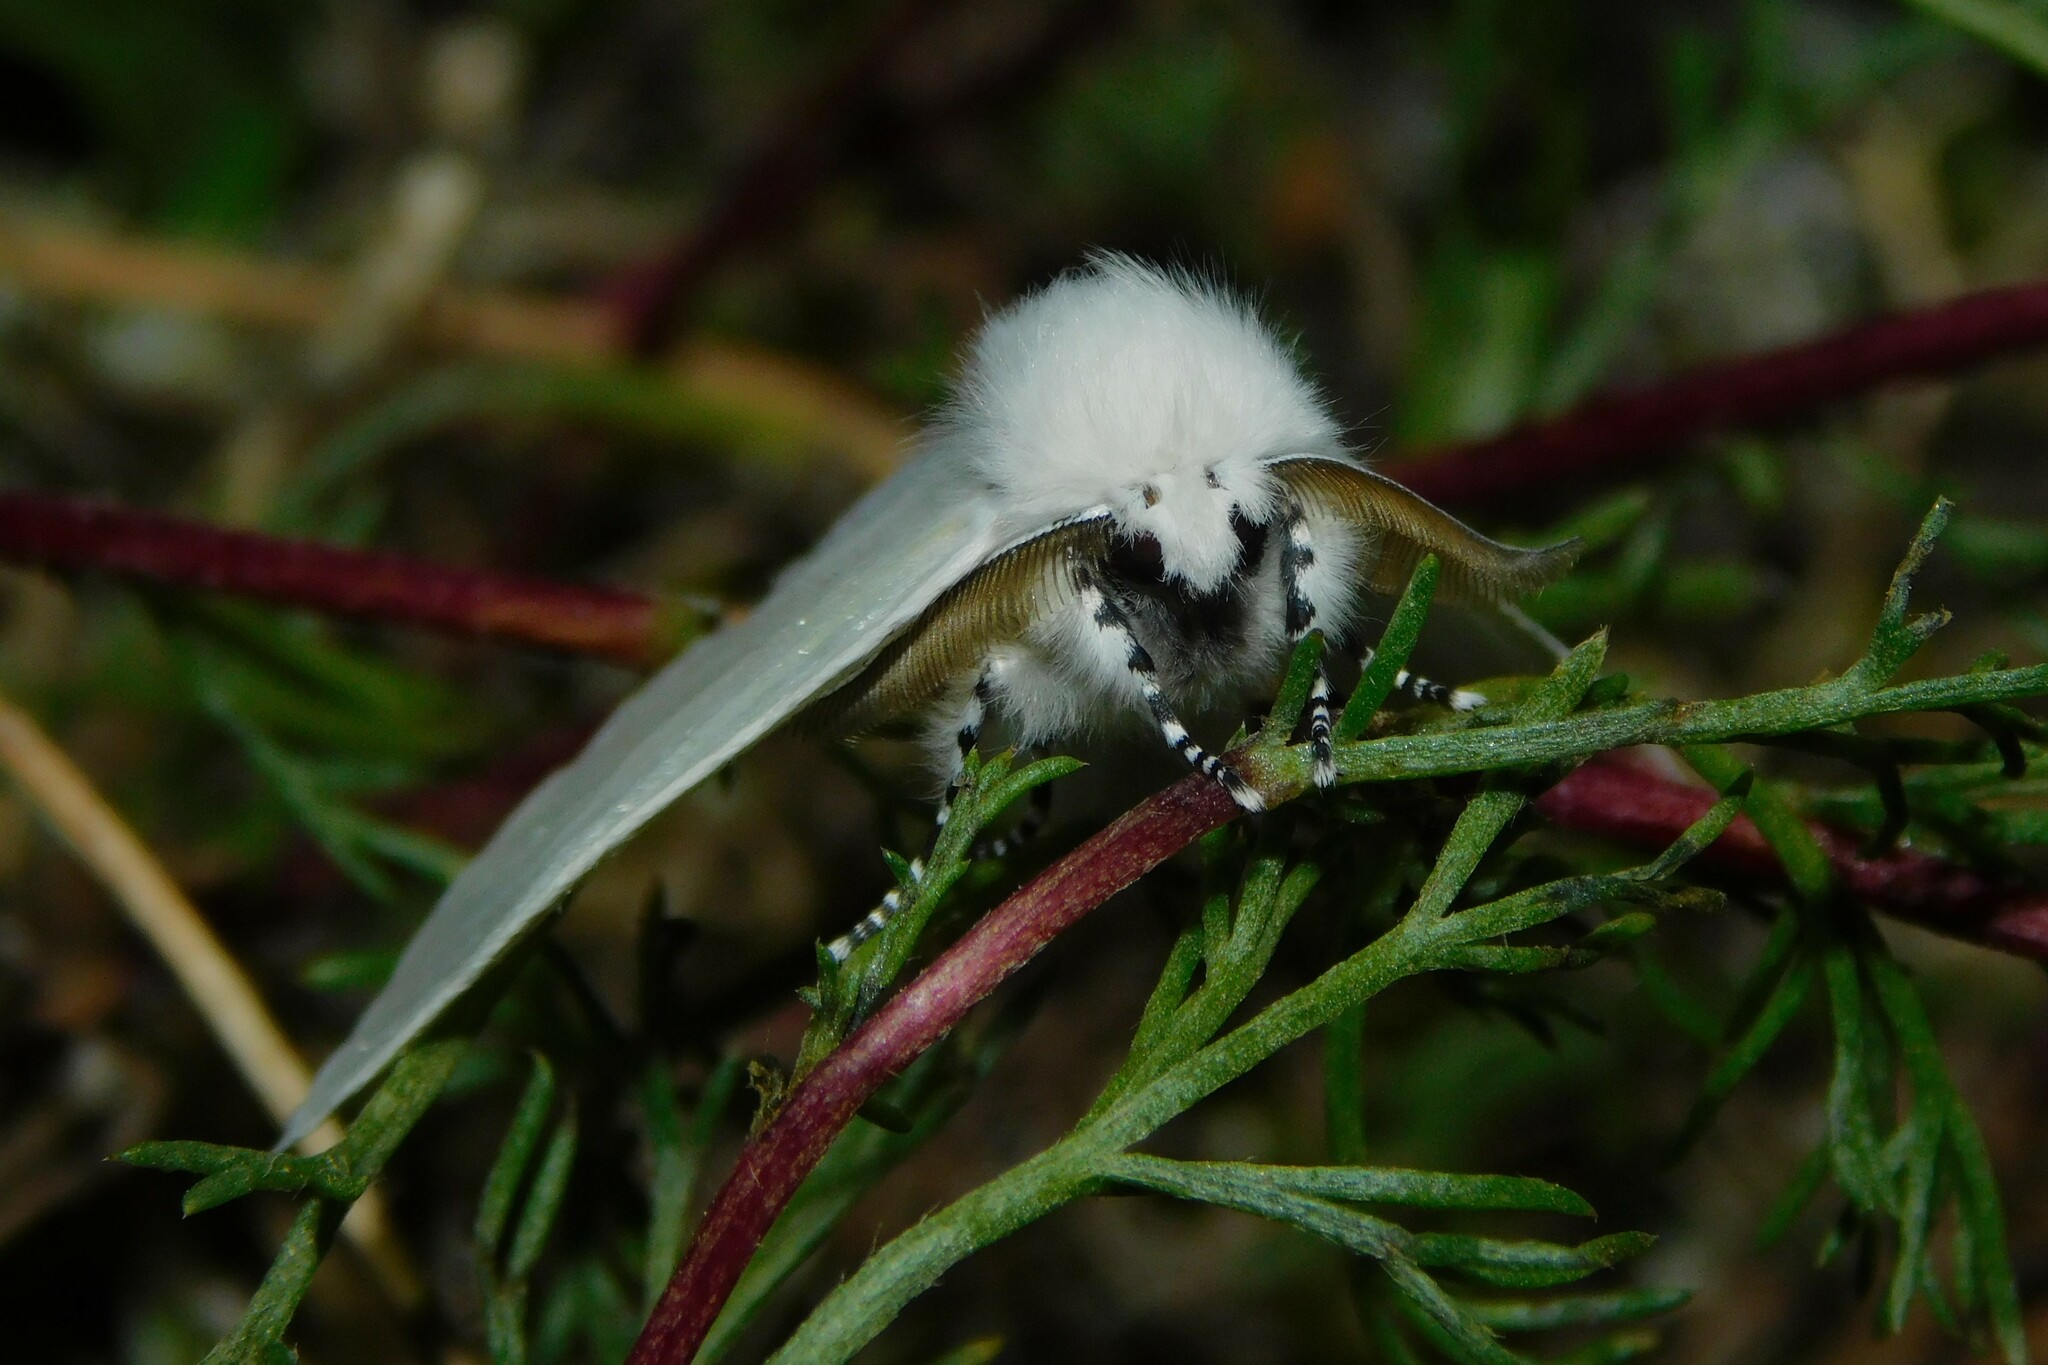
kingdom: Animalia
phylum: Arthropoda
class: Insecta
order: Lepidoptera
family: Erebidae
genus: Leucoma
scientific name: Leucoma salicis
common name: White satin moth
